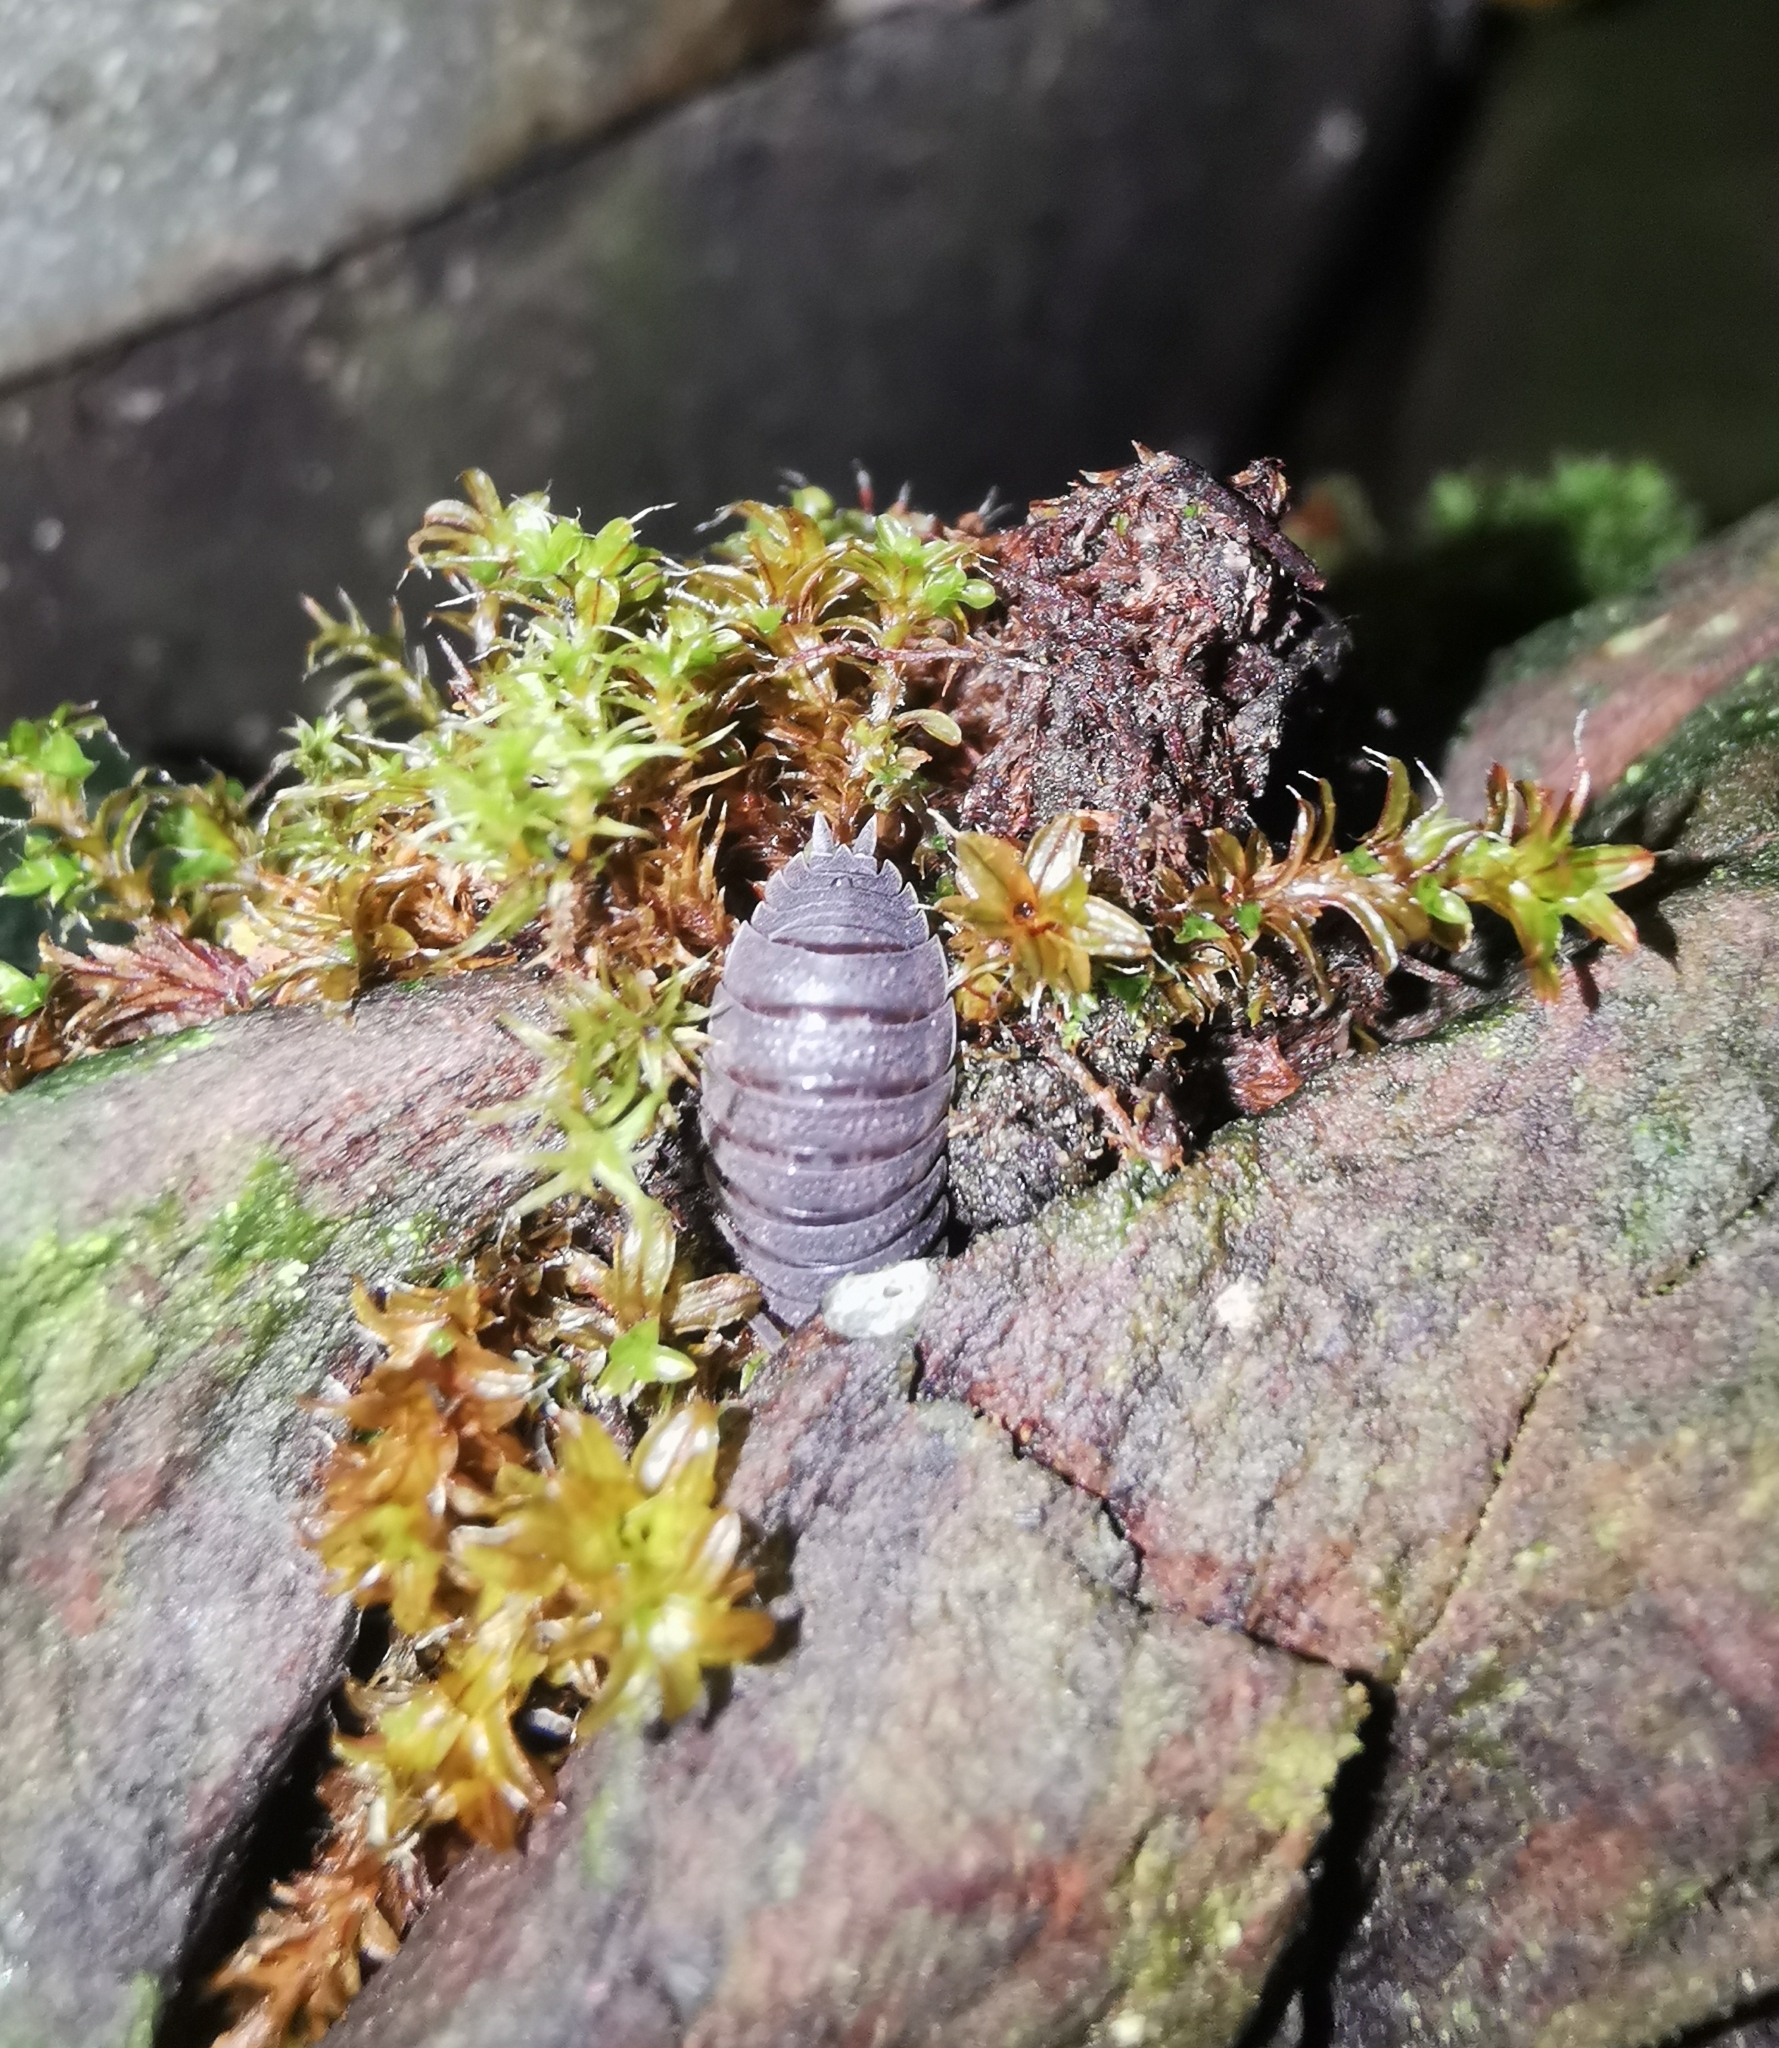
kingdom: Animalia
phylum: Arthropoda
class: Malacostraca
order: Isopoda
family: Porcellionidae
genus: Porcellio
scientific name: Porcellio scaber
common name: Common rough woodlouse
